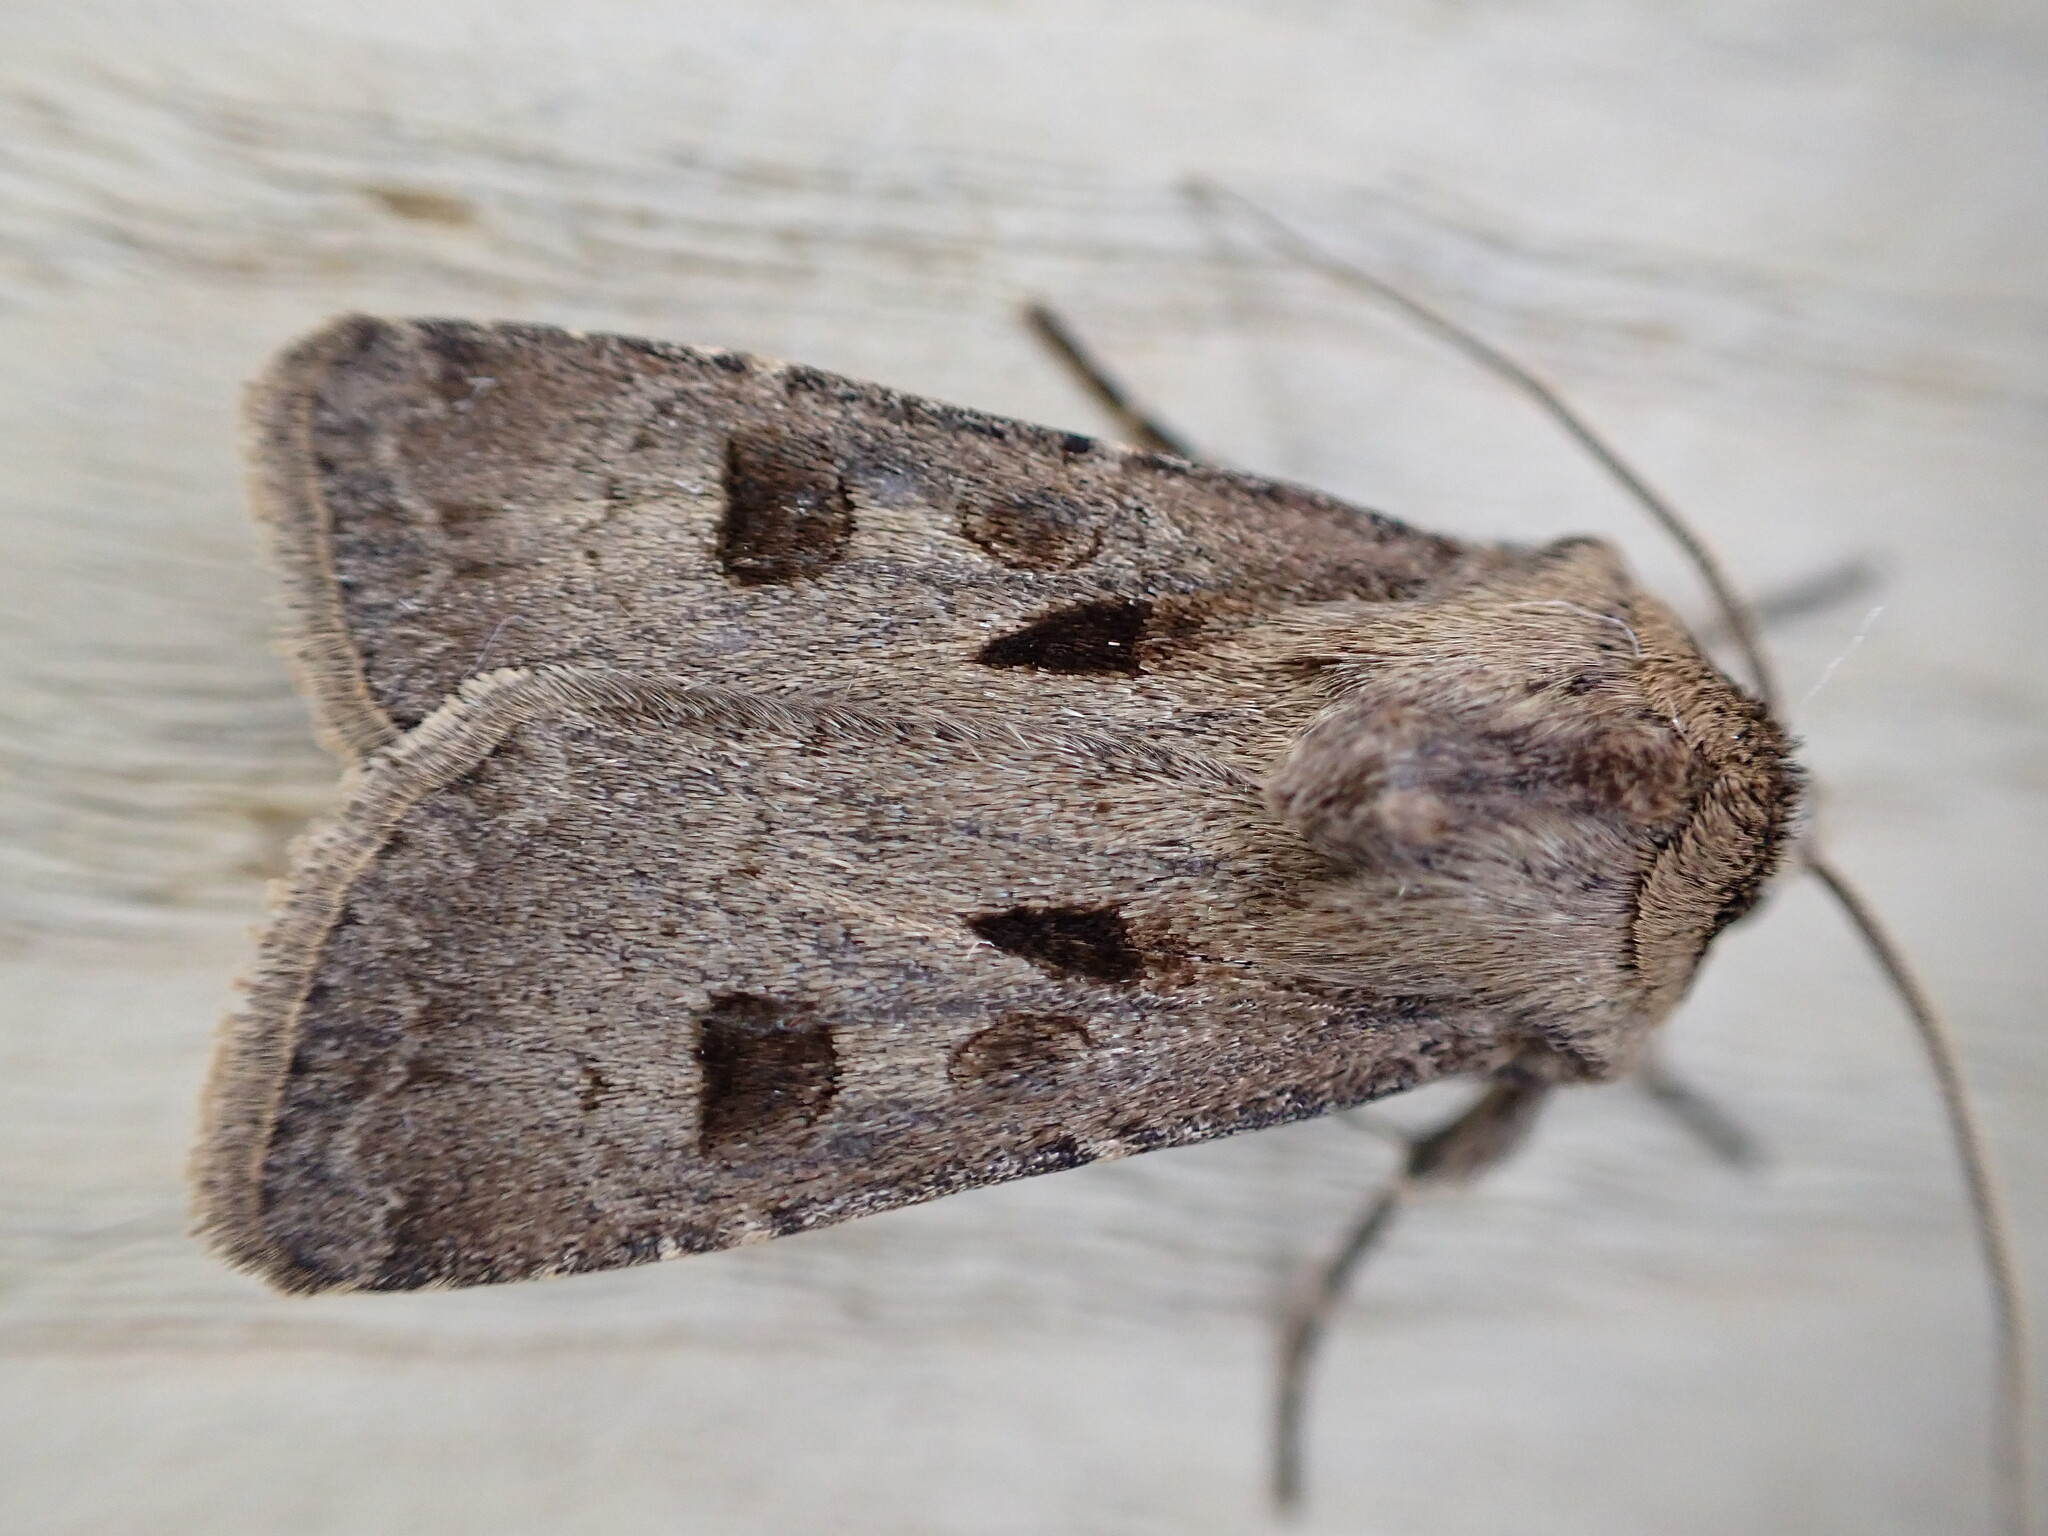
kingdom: Animalia
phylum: Arthropoda
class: Insecta
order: Lepidoptera
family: Noctuidae
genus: Agrotis
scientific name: Agrotis exclamationis
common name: Heart and dart
